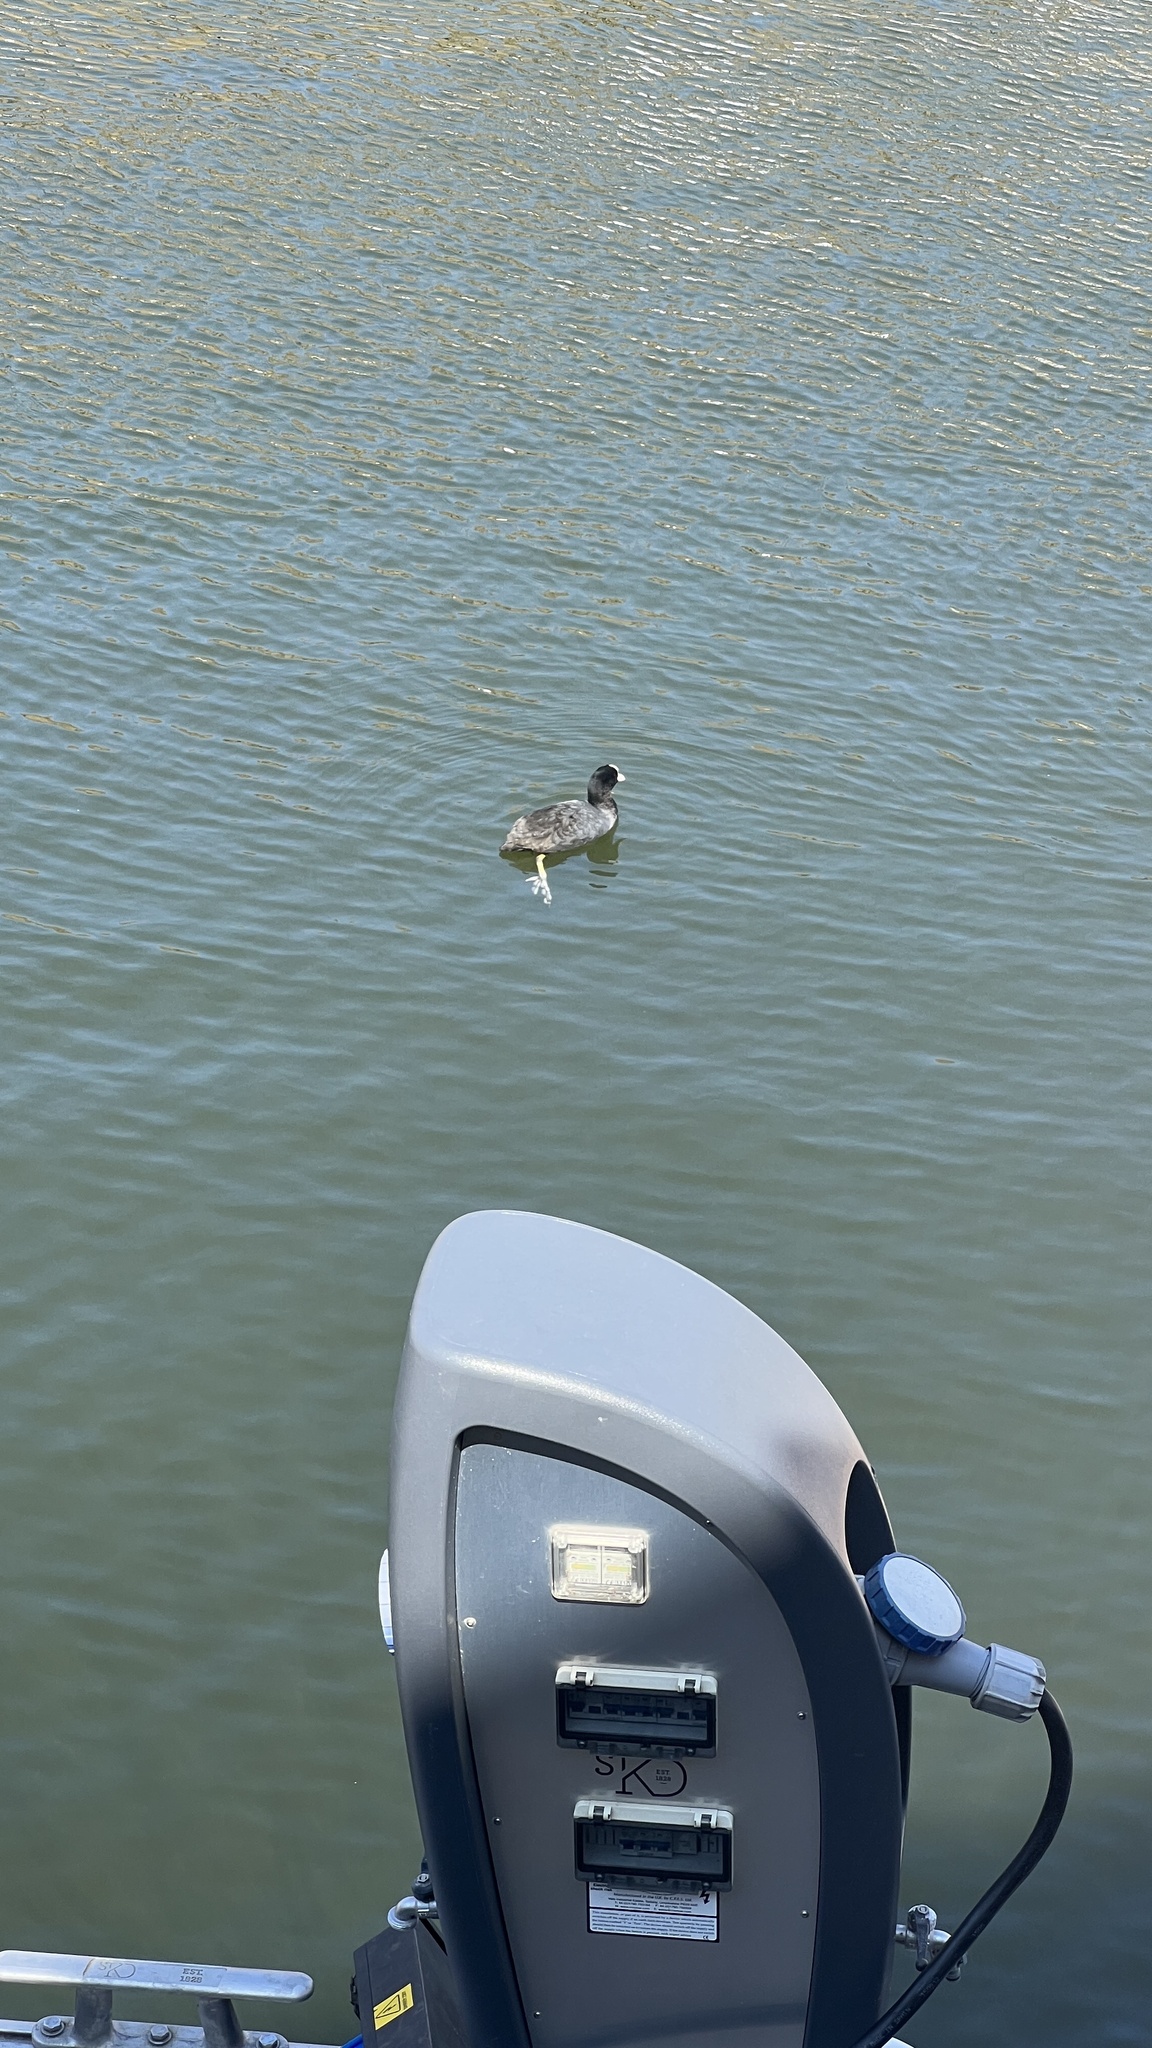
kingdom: Animalia
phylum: Chordata
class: Aves
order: Gruiformes
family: Rallidae
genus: Fulica
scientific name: Fulica atra
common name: Eurasian coot
